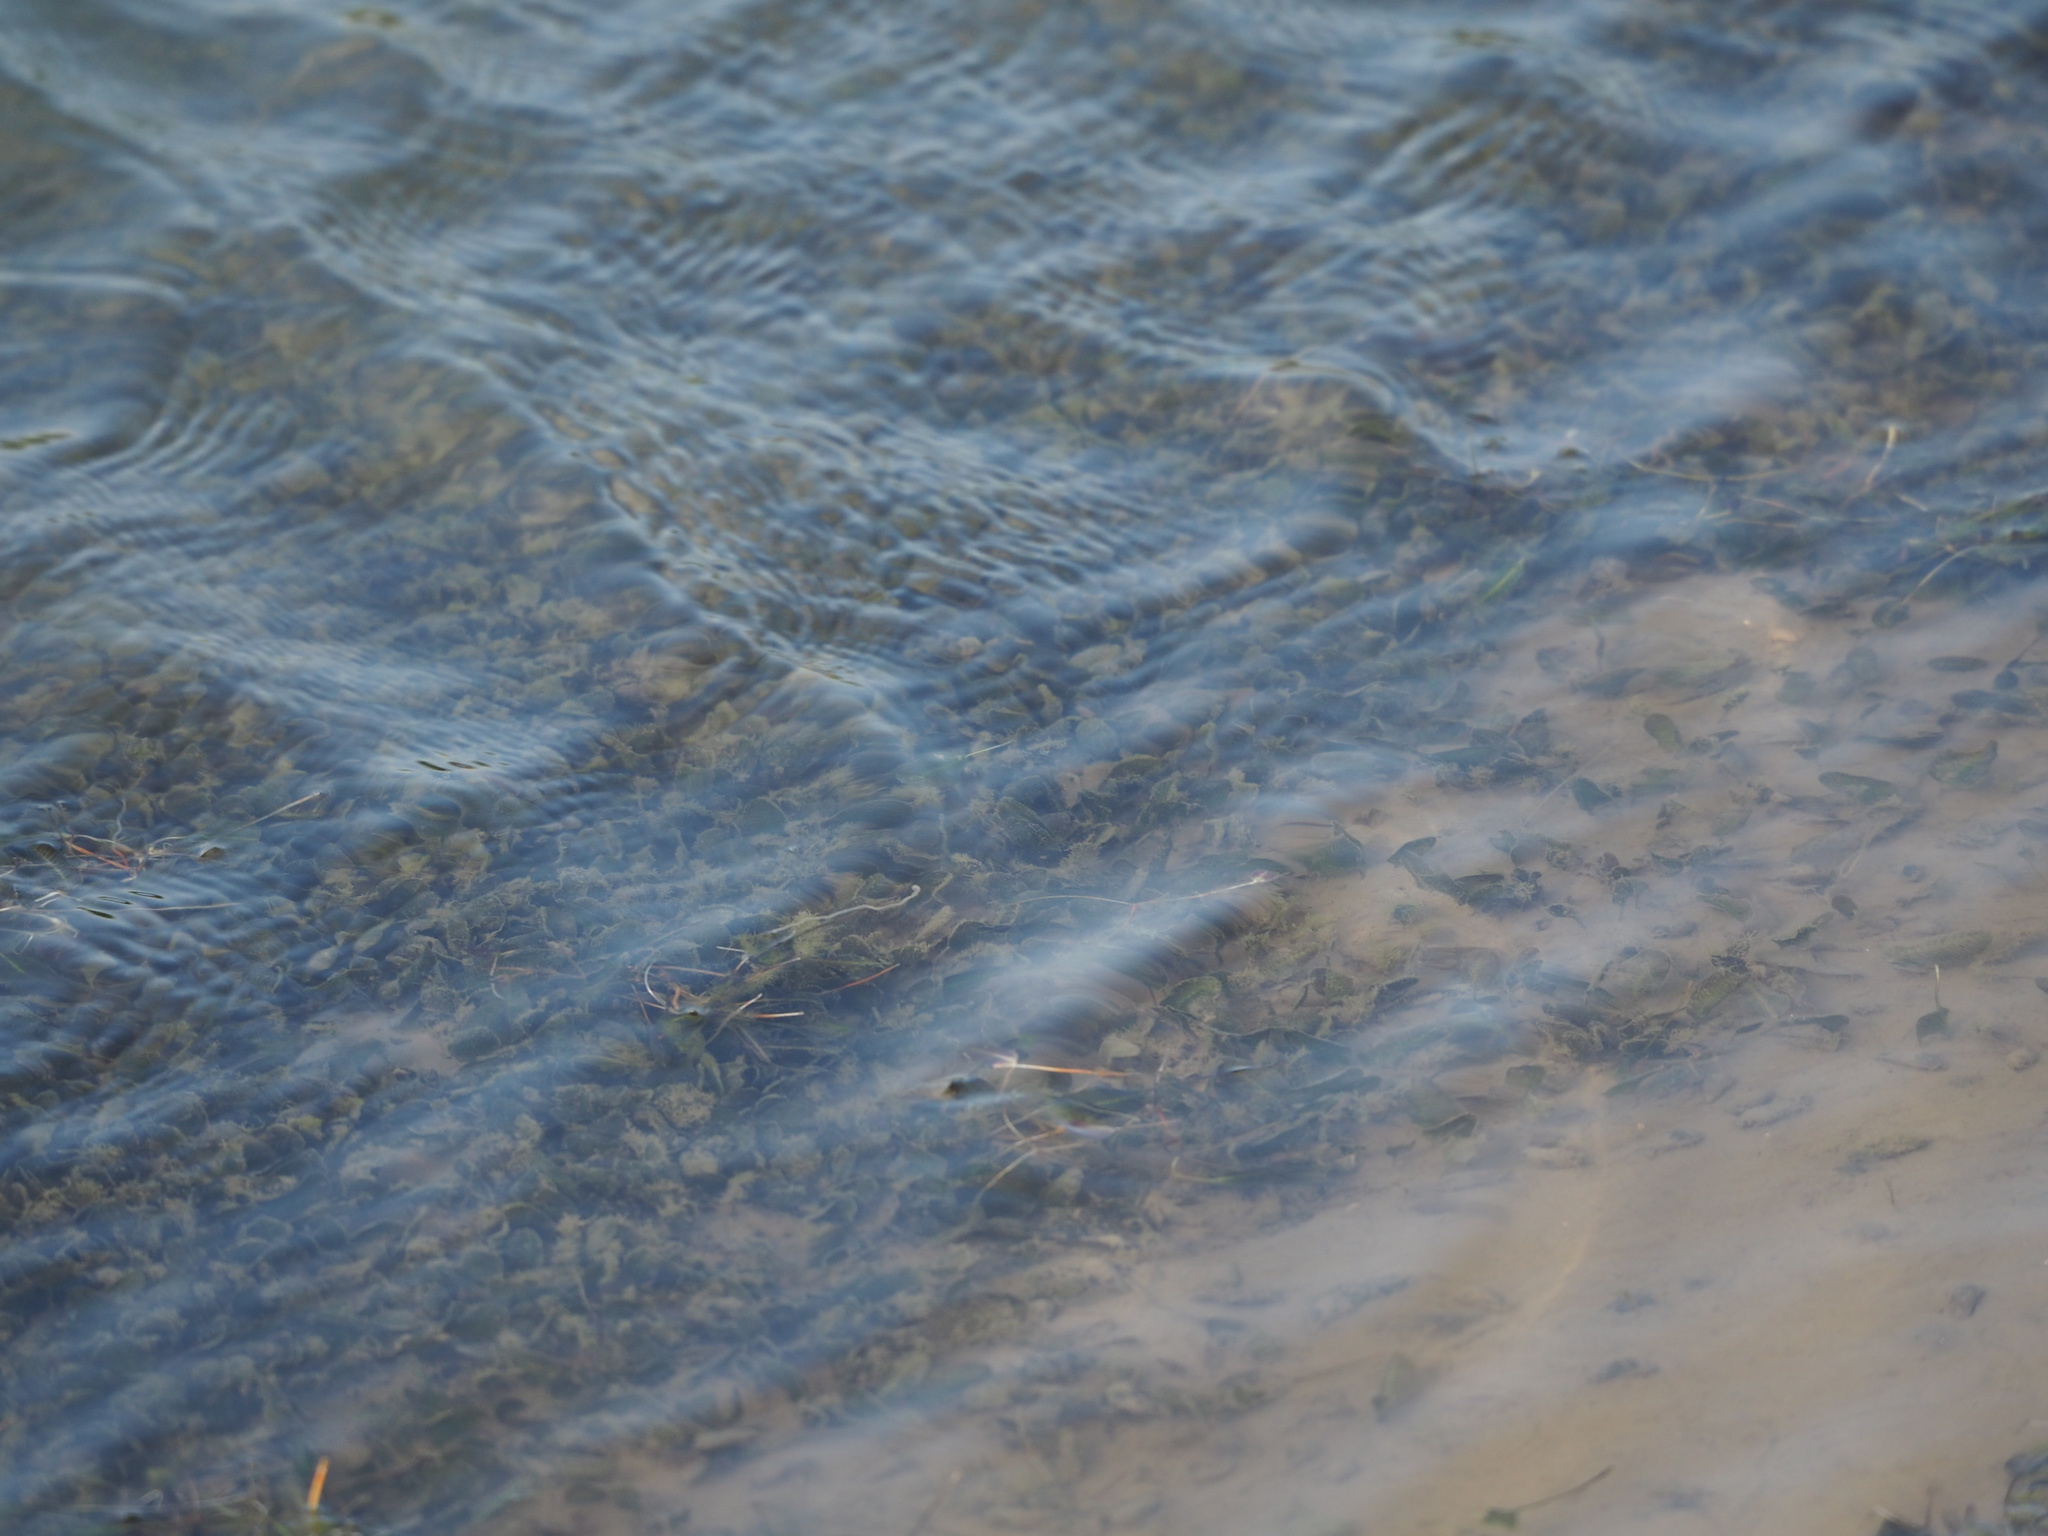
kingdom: Plantae
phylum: Tracheophyta
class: Liliopsida
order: Alismatales
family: Hydrocharitaceae
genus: Halophila
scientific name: Halophila ovalis
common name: Species code: ho
